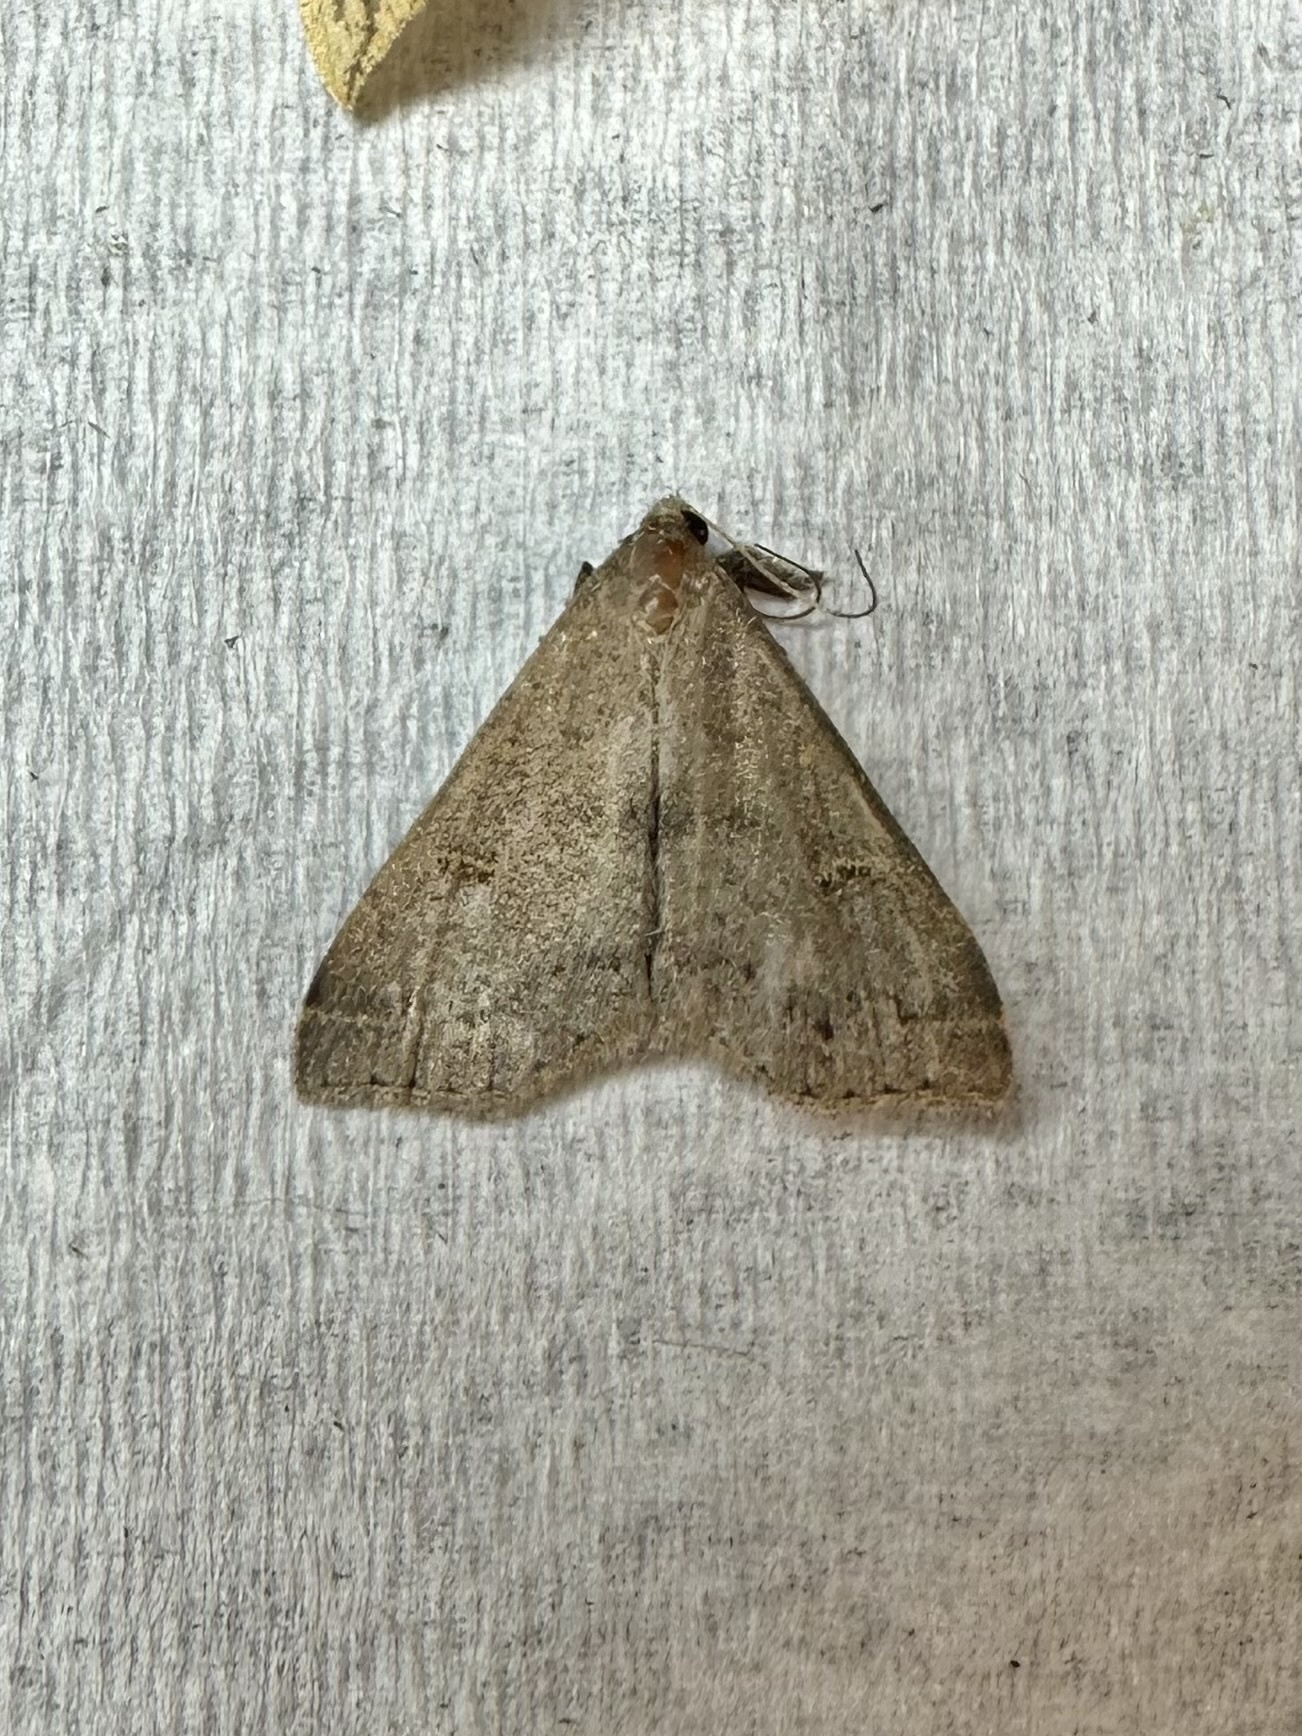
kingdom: Animalia
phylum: Arthropoda
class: Insecta
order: Lepidoptera
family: Erebidae
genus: Renia
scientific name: Renia adspergillus
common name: Speckled renia moth
